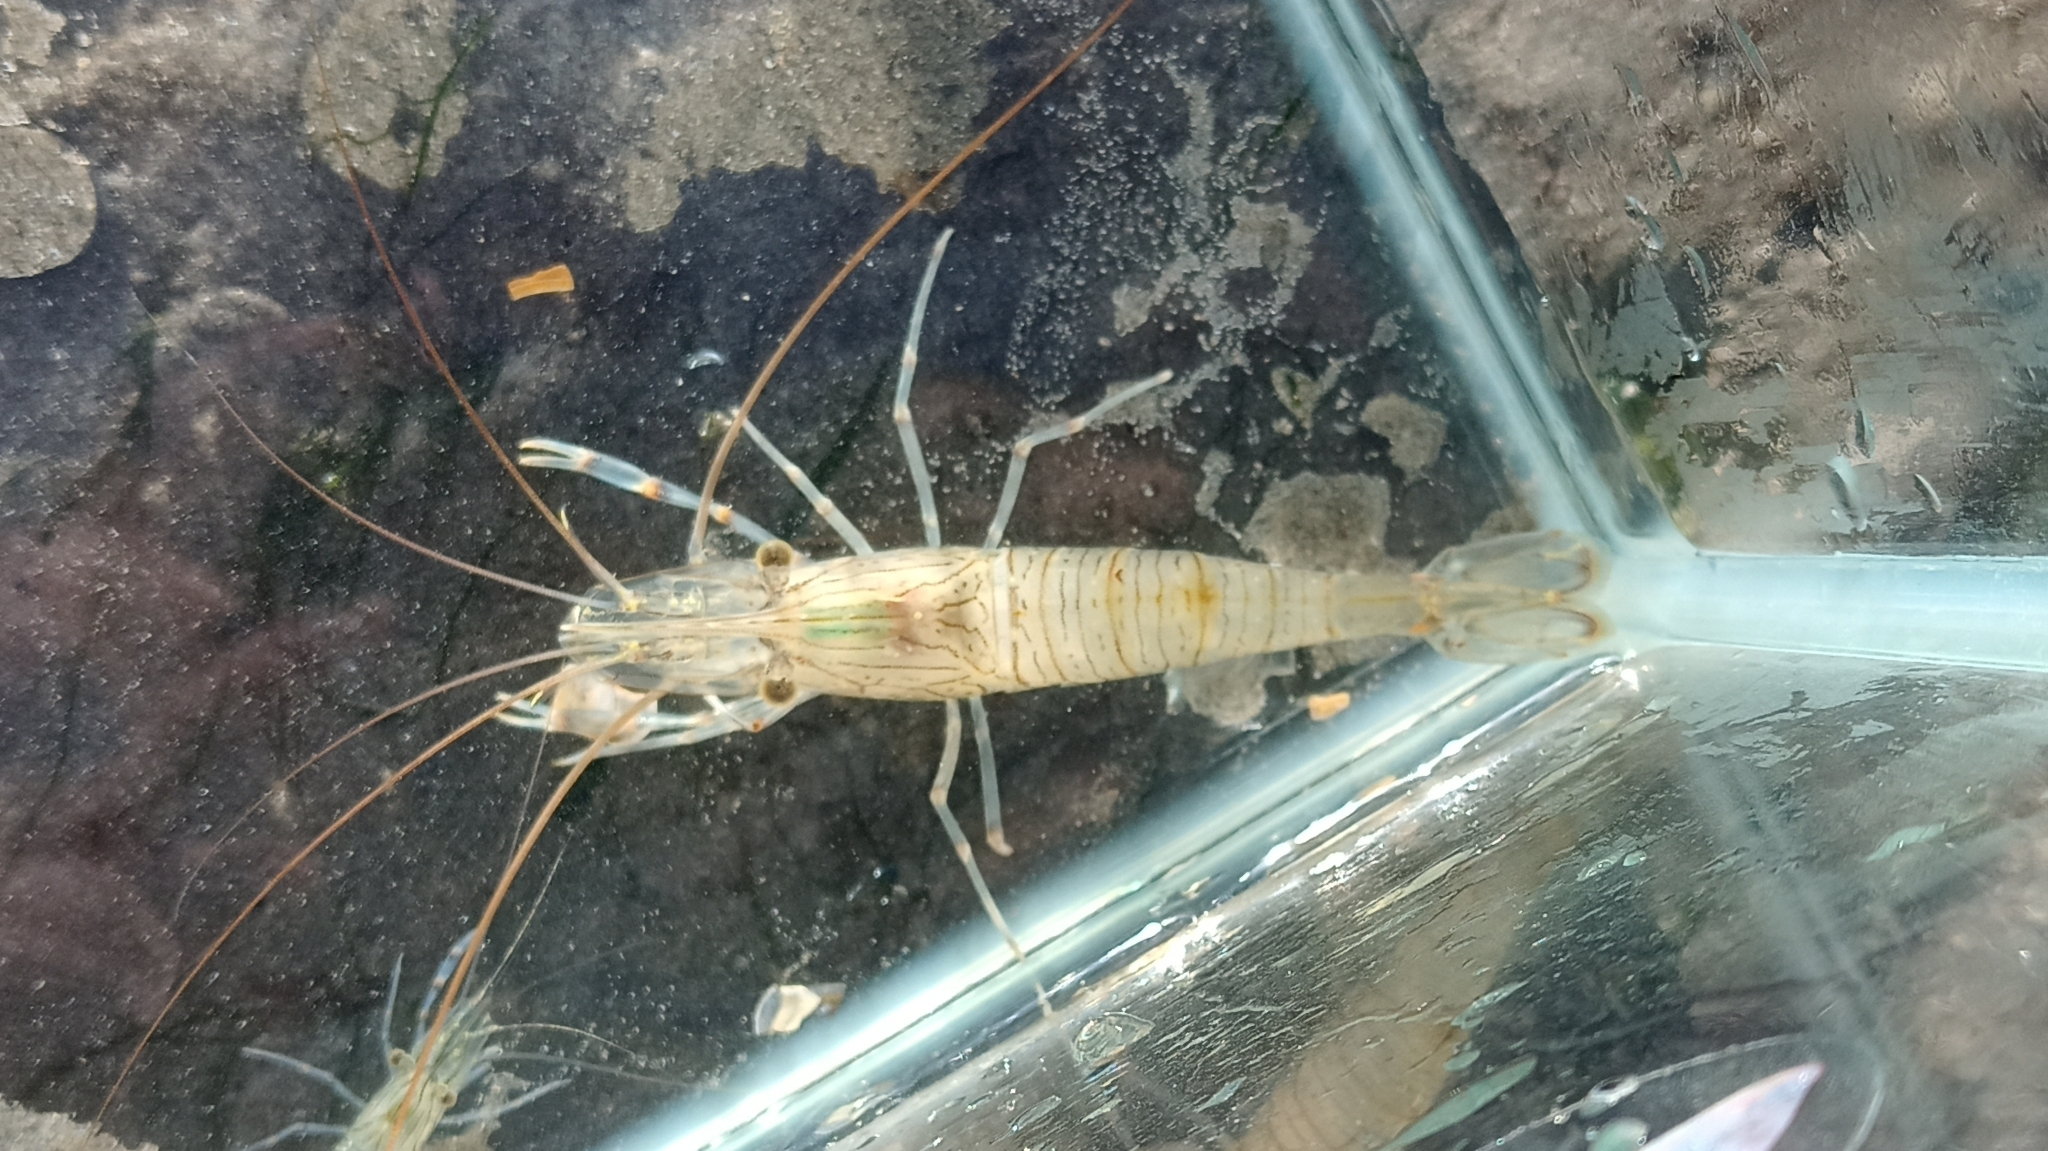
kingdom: Animalia
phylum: Arthropoda
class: Malacostraca
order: Decapoda
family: Palaemonidae
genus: Palaemon
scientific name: Palaemon serratus
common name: Common prawn
